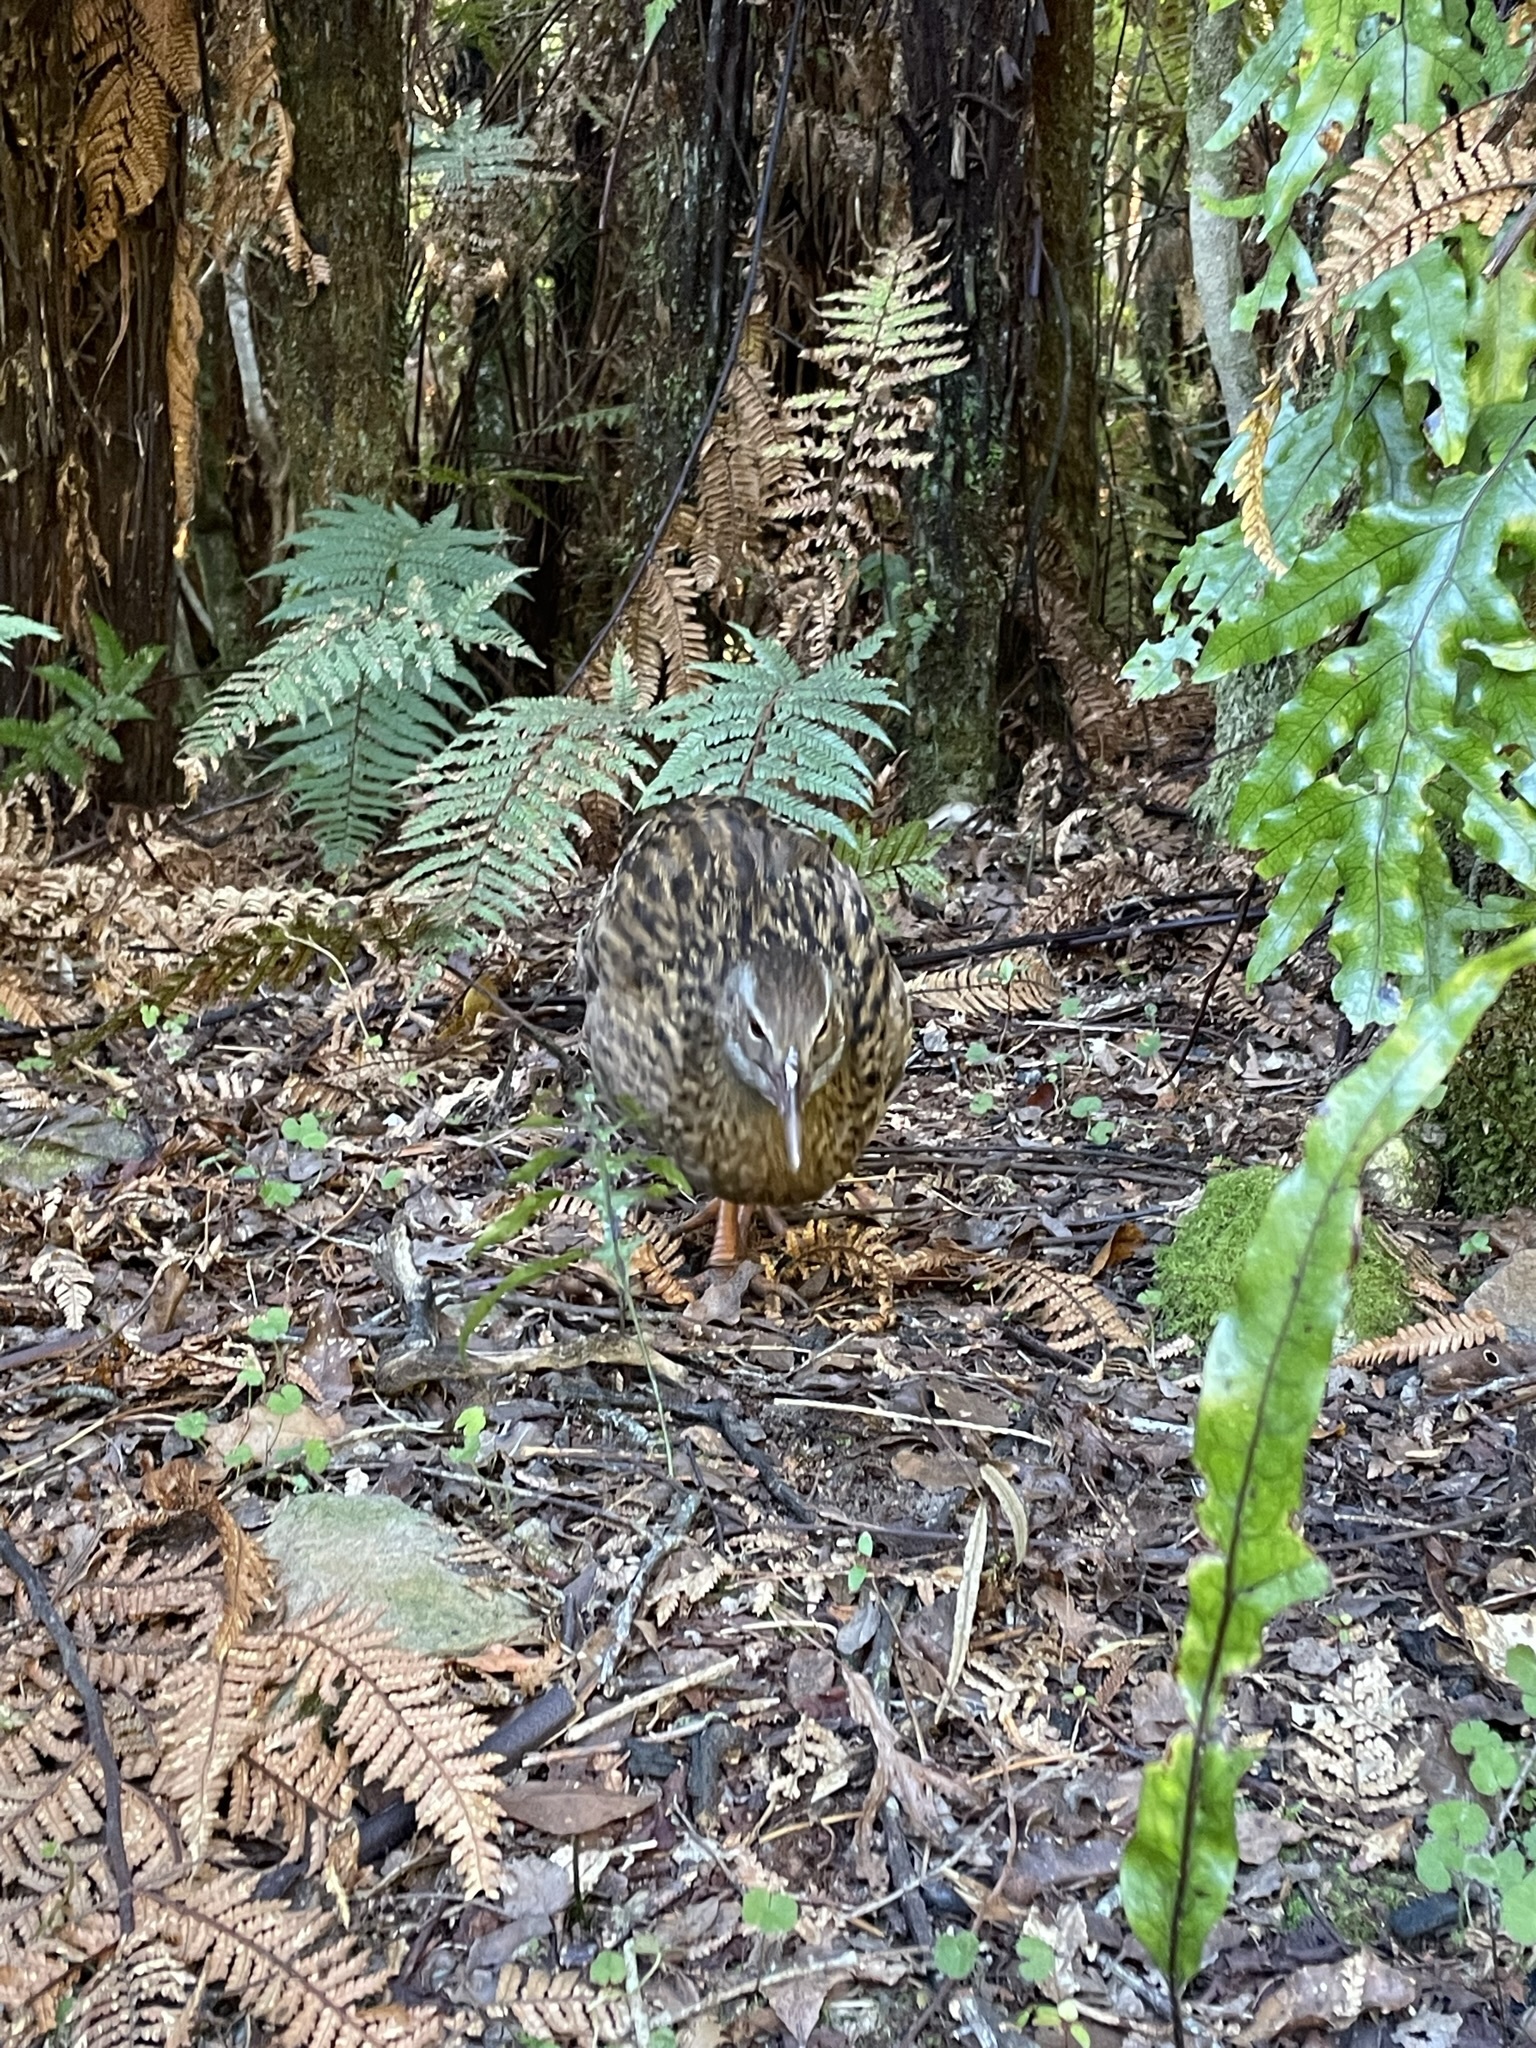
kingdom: Animalia
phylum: Chordata
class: Aves
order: Gruiformes
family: Rallidae
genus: Gallirallus
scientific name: Gallirallus australis
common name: Weka
